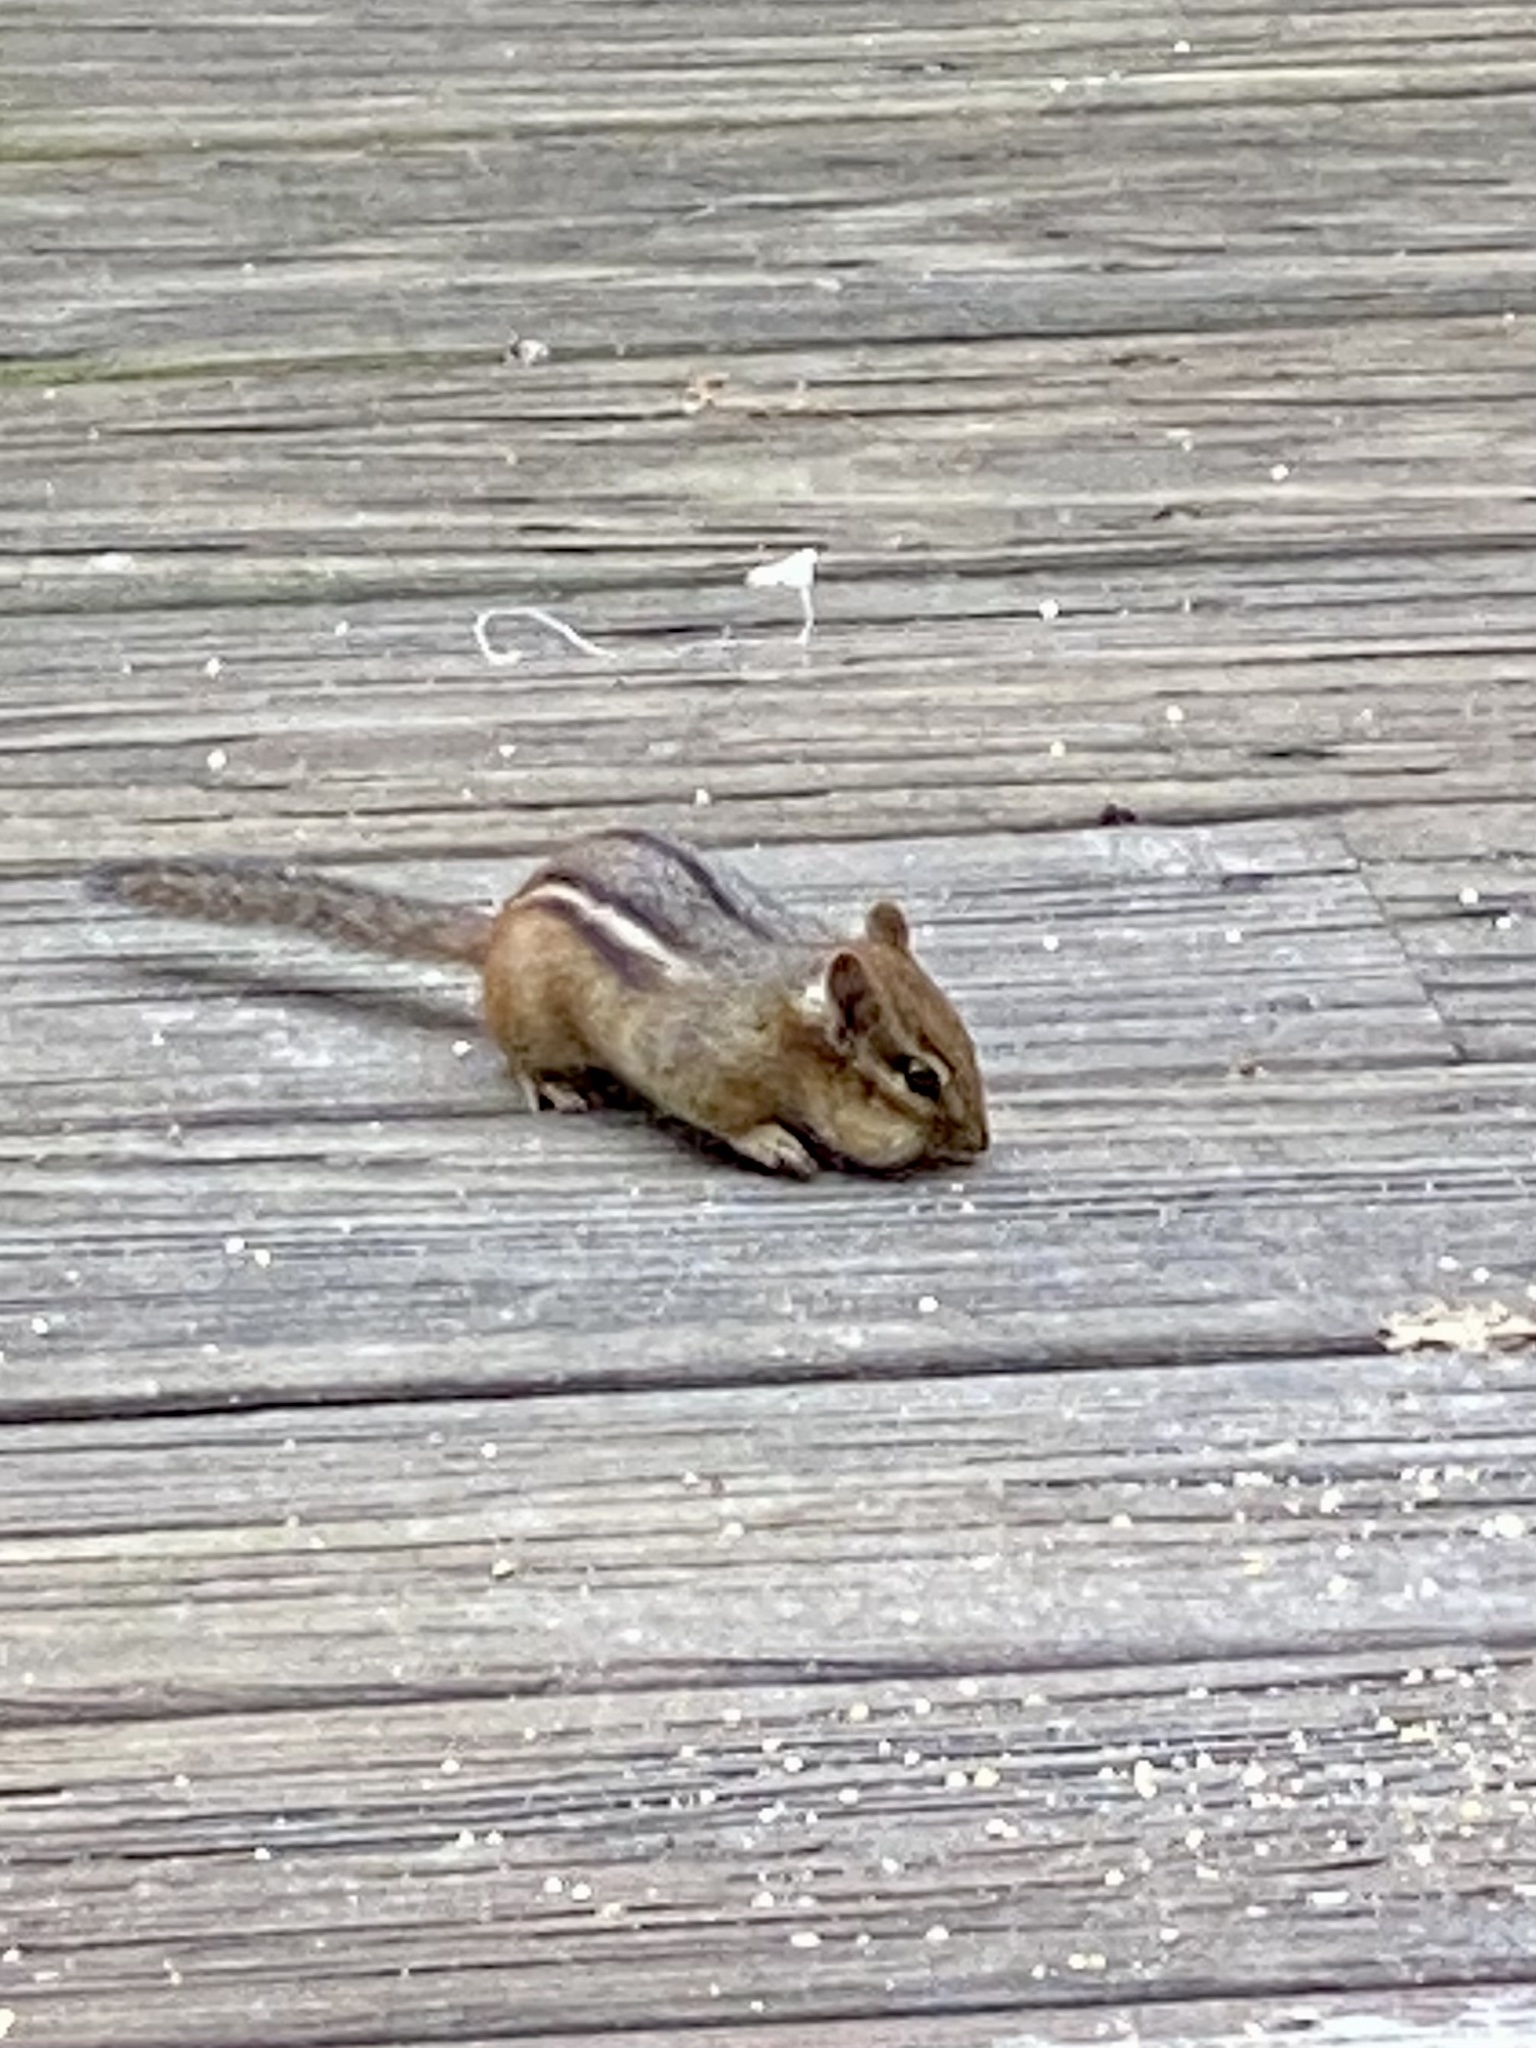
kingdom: Animalia
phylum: Chordata
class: Mammalia
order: Rodentia
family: Sciuridae
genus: Tamias
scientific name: Tamias striatus
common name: Eastern chipmunk
